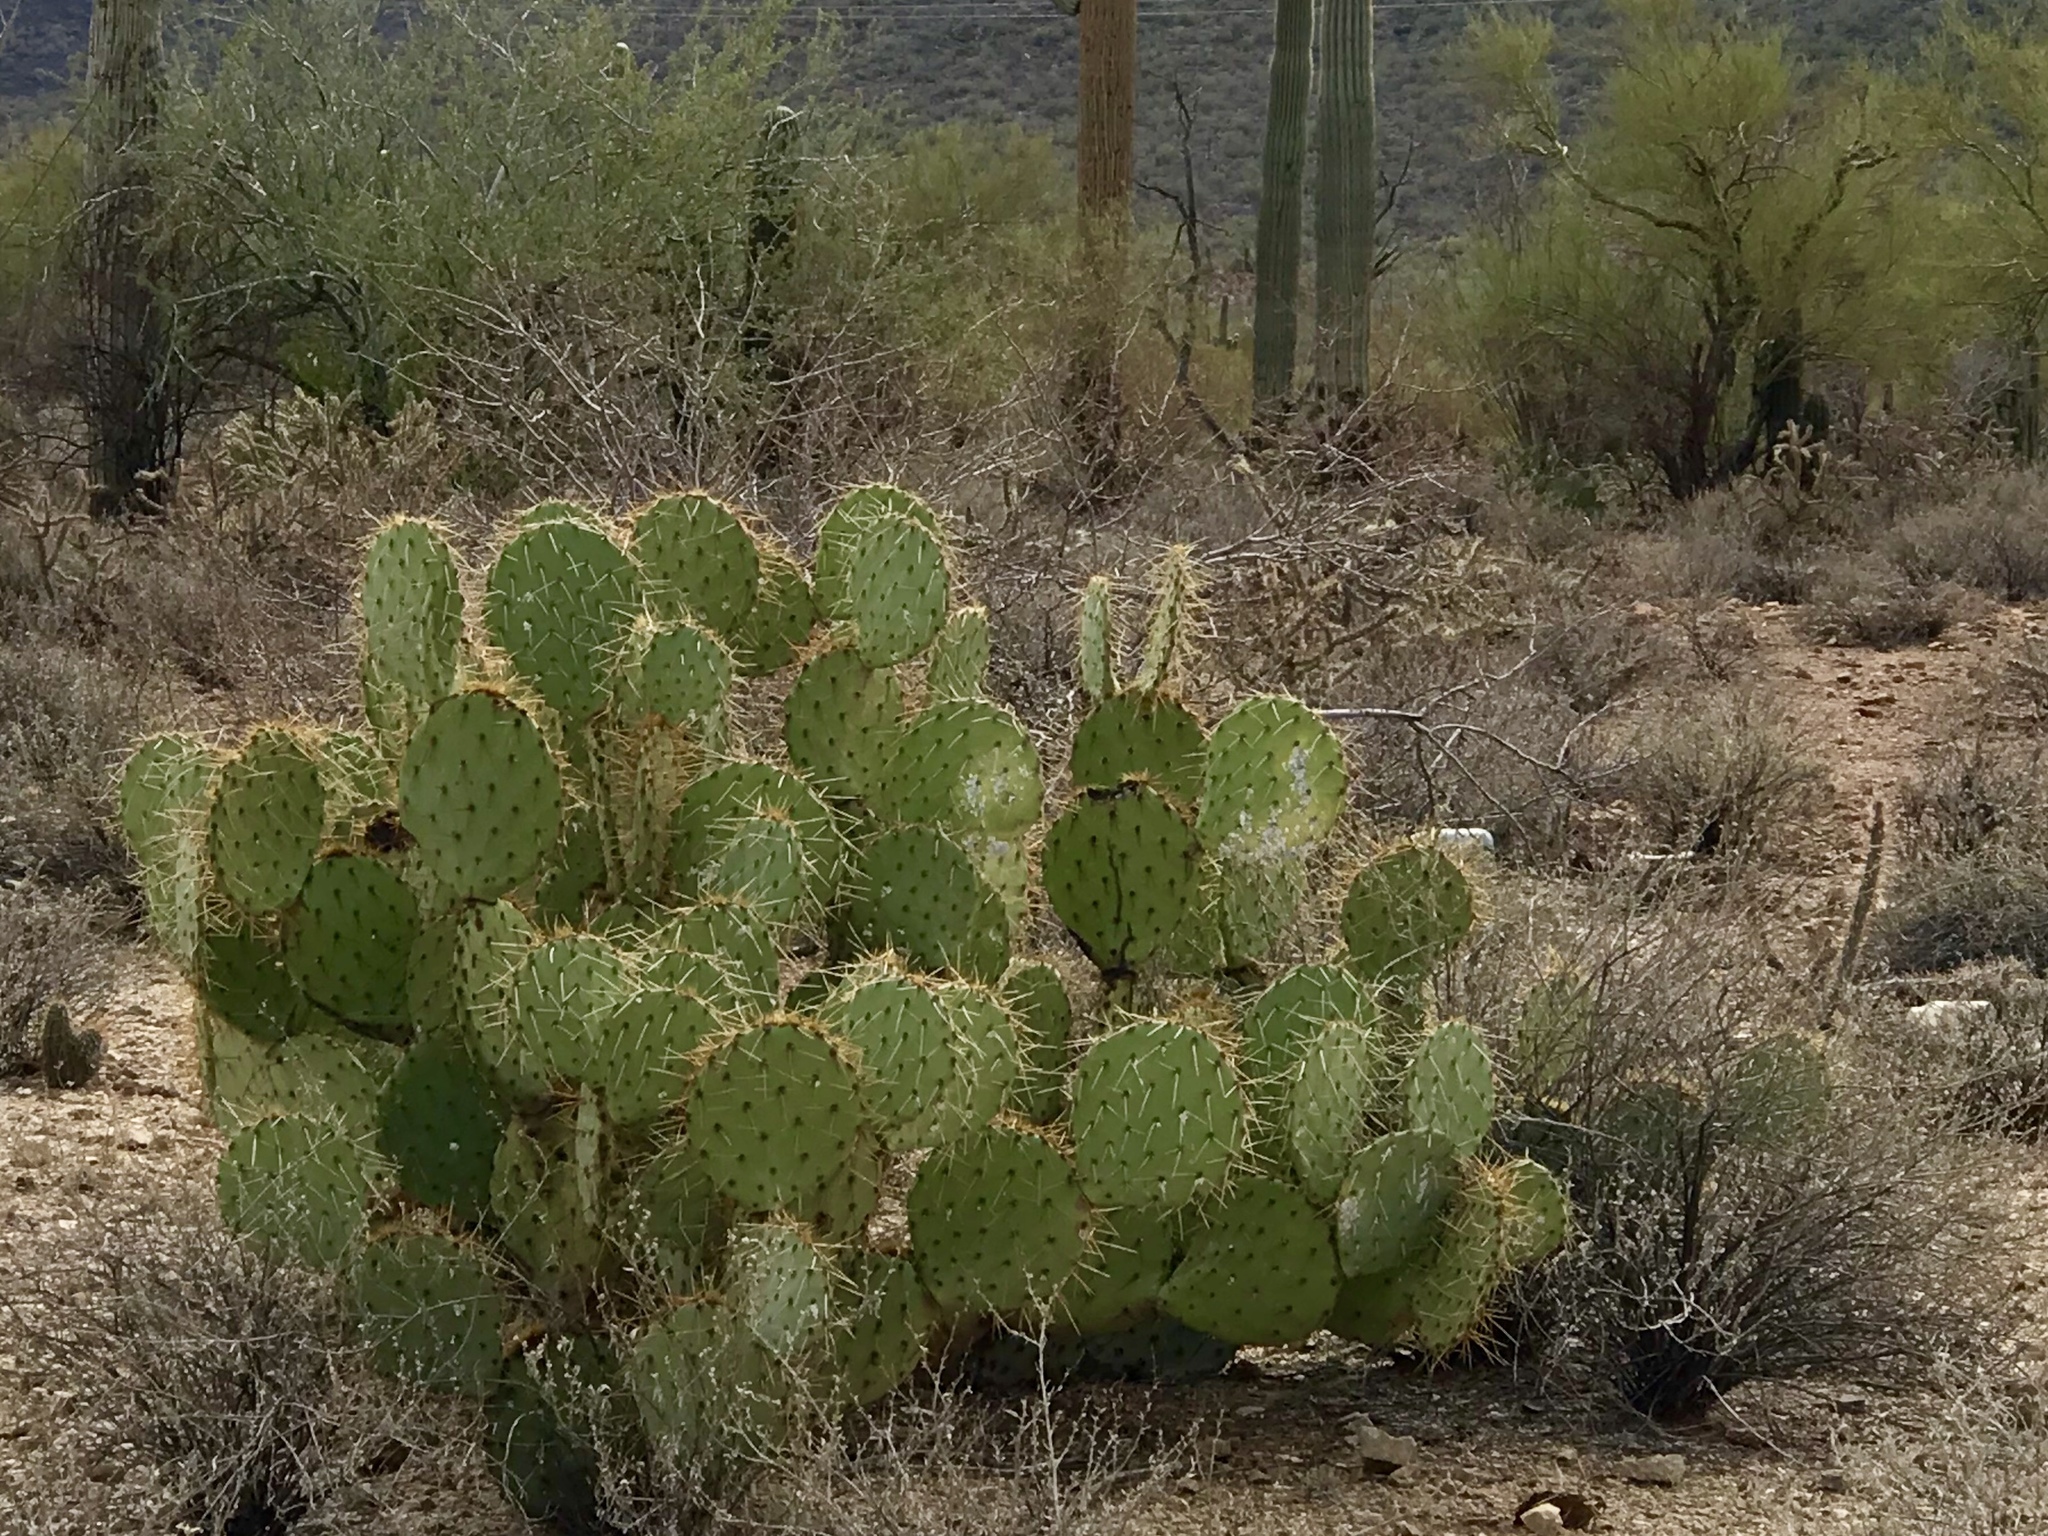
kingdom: Plantae
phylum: Tracheophyta
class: Magnoliopsida
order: Caryophyllales
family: Cactaceae
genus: Opuntia
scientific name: Opuntia engelmannii
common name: Cactus-apple
